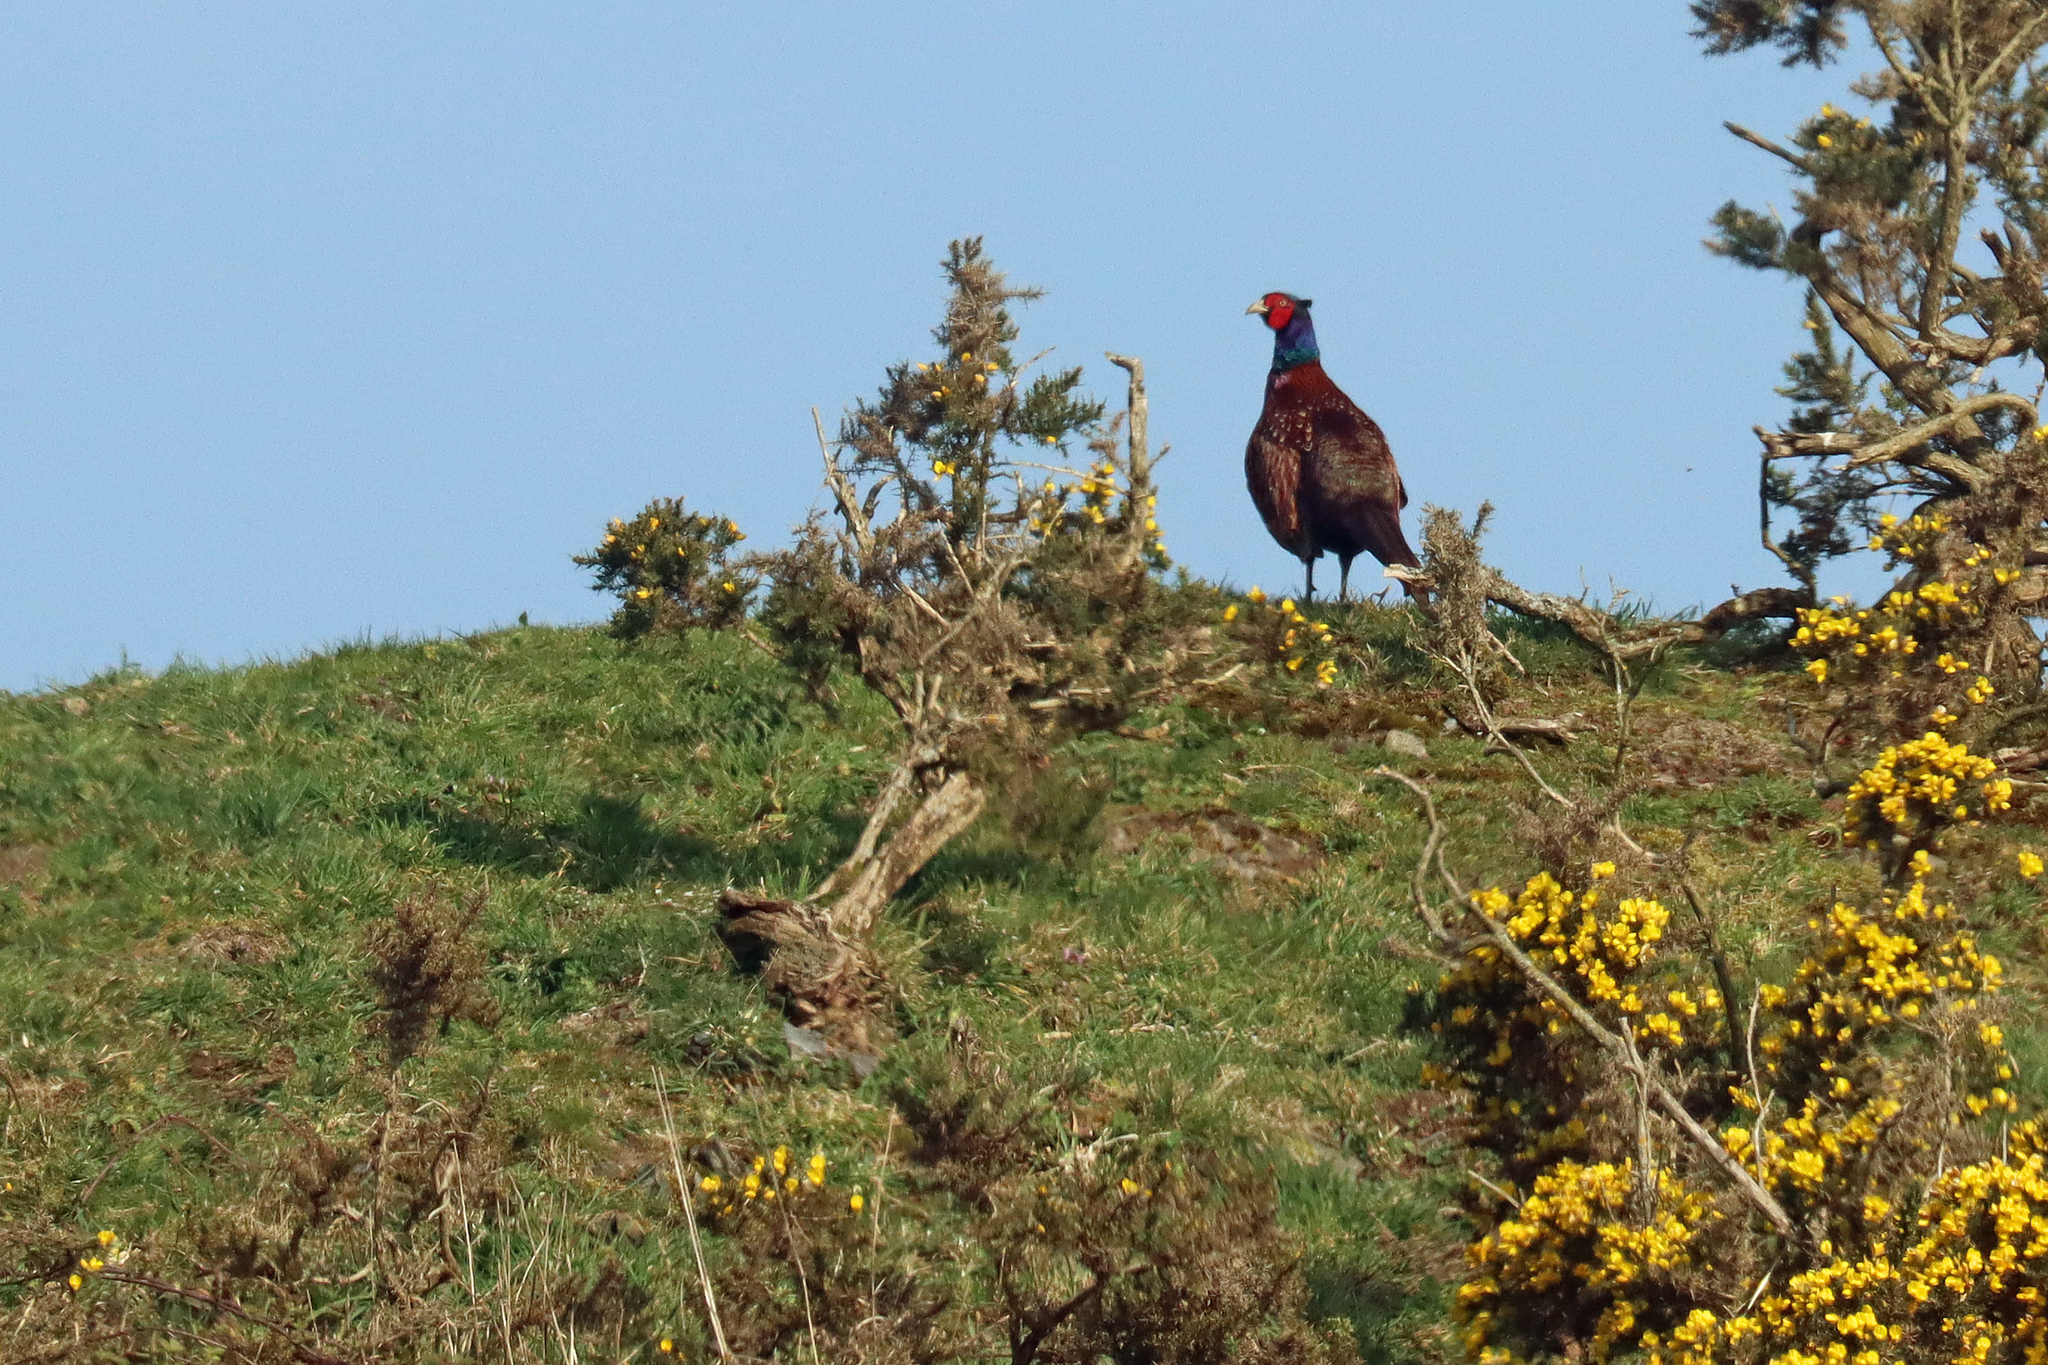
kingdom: Animalia
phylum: Chordata
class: Aves
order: Galliformes
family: Phasianidae
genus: Phasianus
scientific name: Phasianus colchicus
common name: Common pheasant
